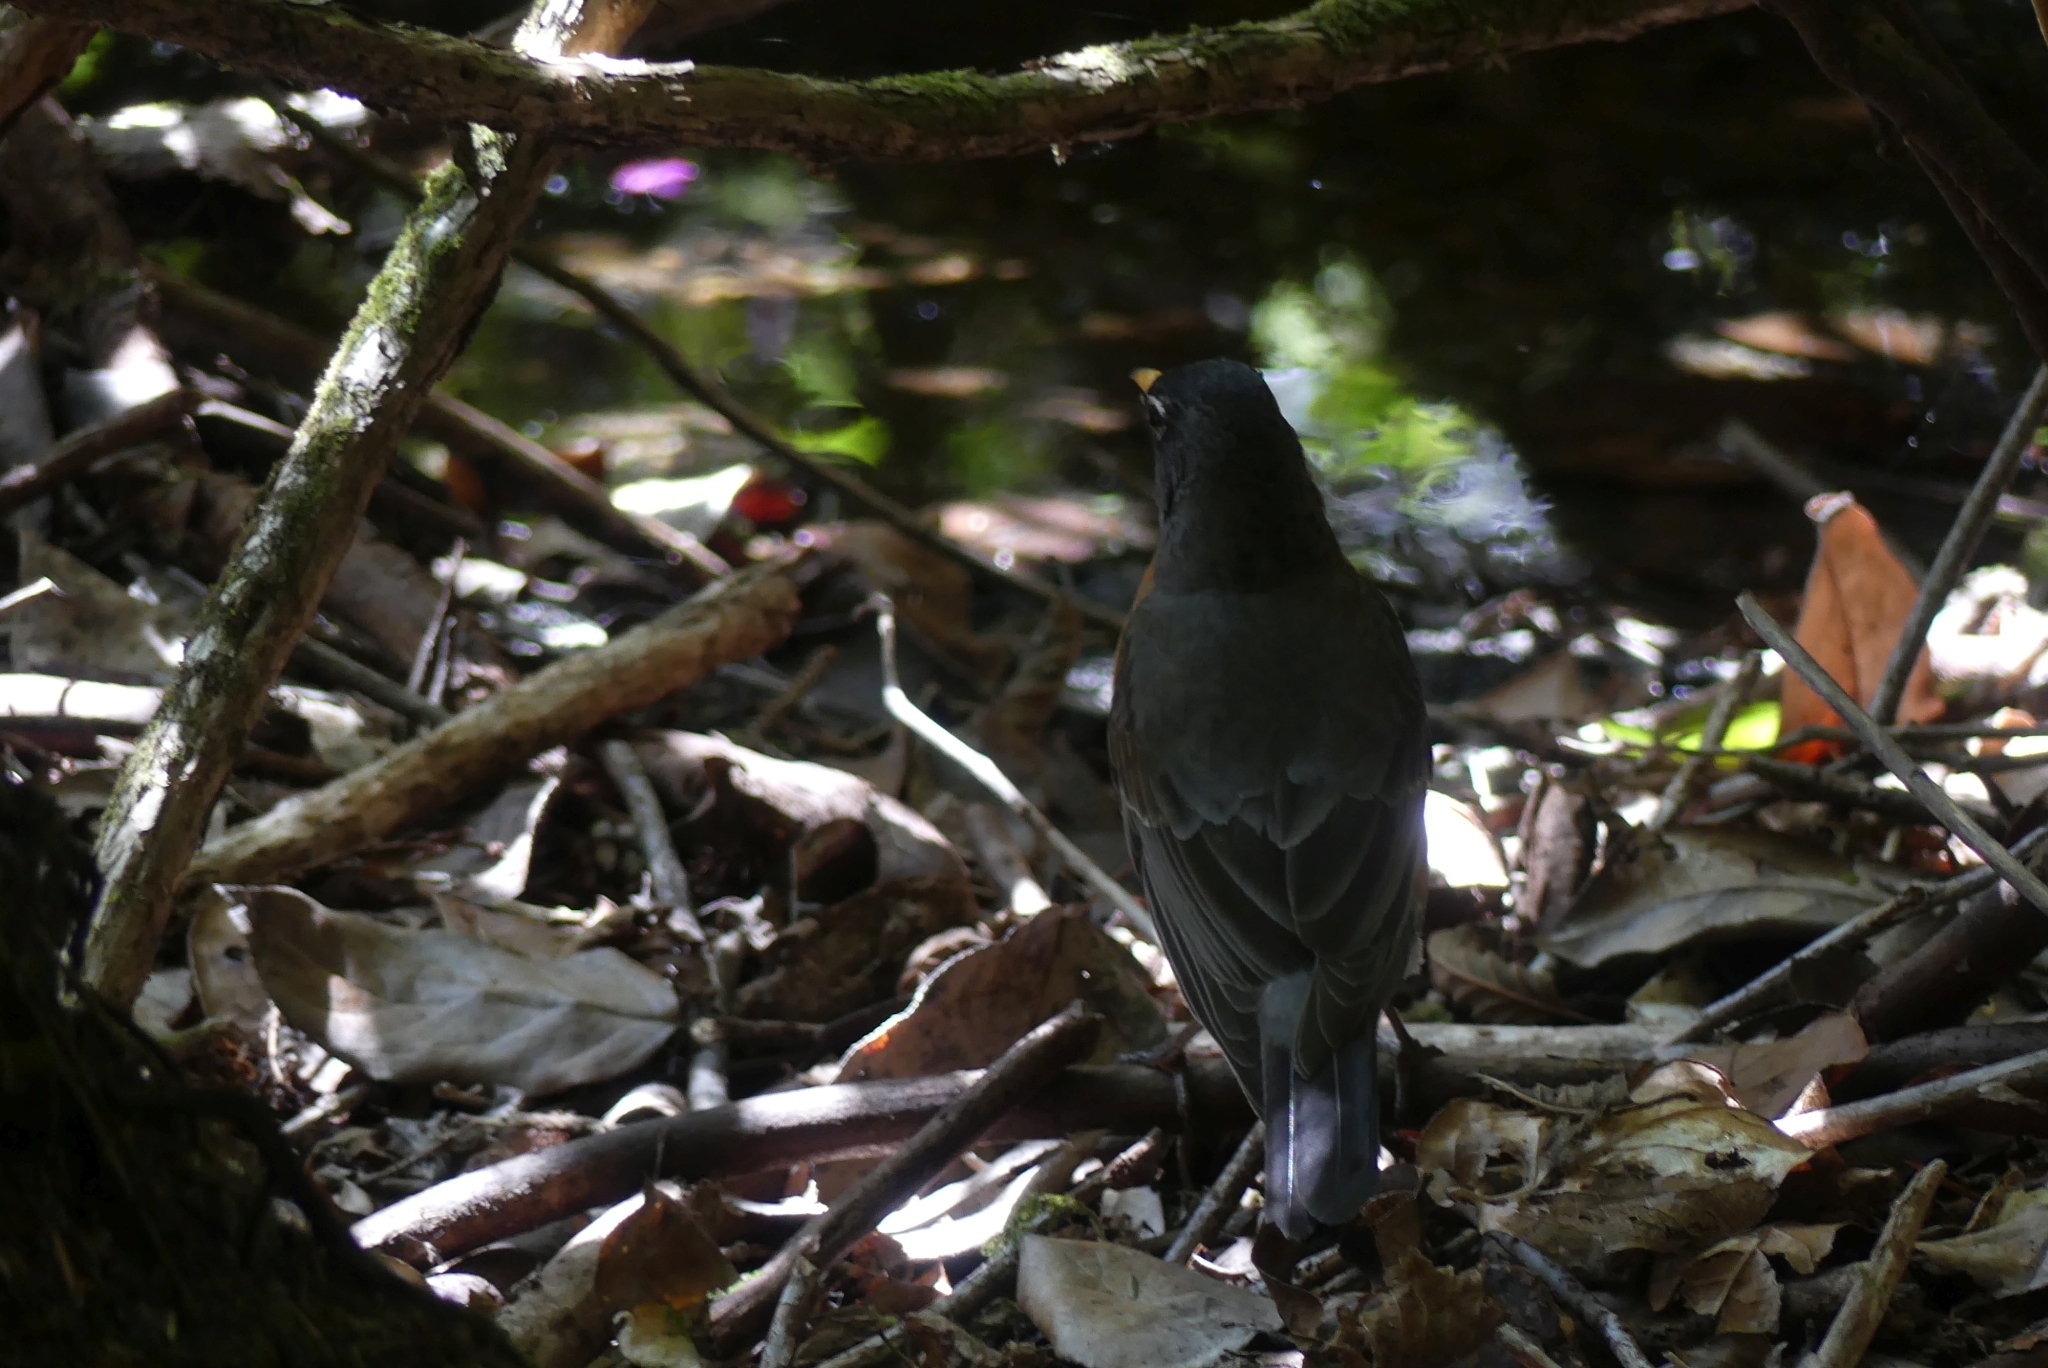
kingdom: Animalia
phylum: Chordata
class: Aves
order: Passeriformes
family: Turdidae
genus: Turdus
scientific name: Turdus migratorius
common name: American robin
